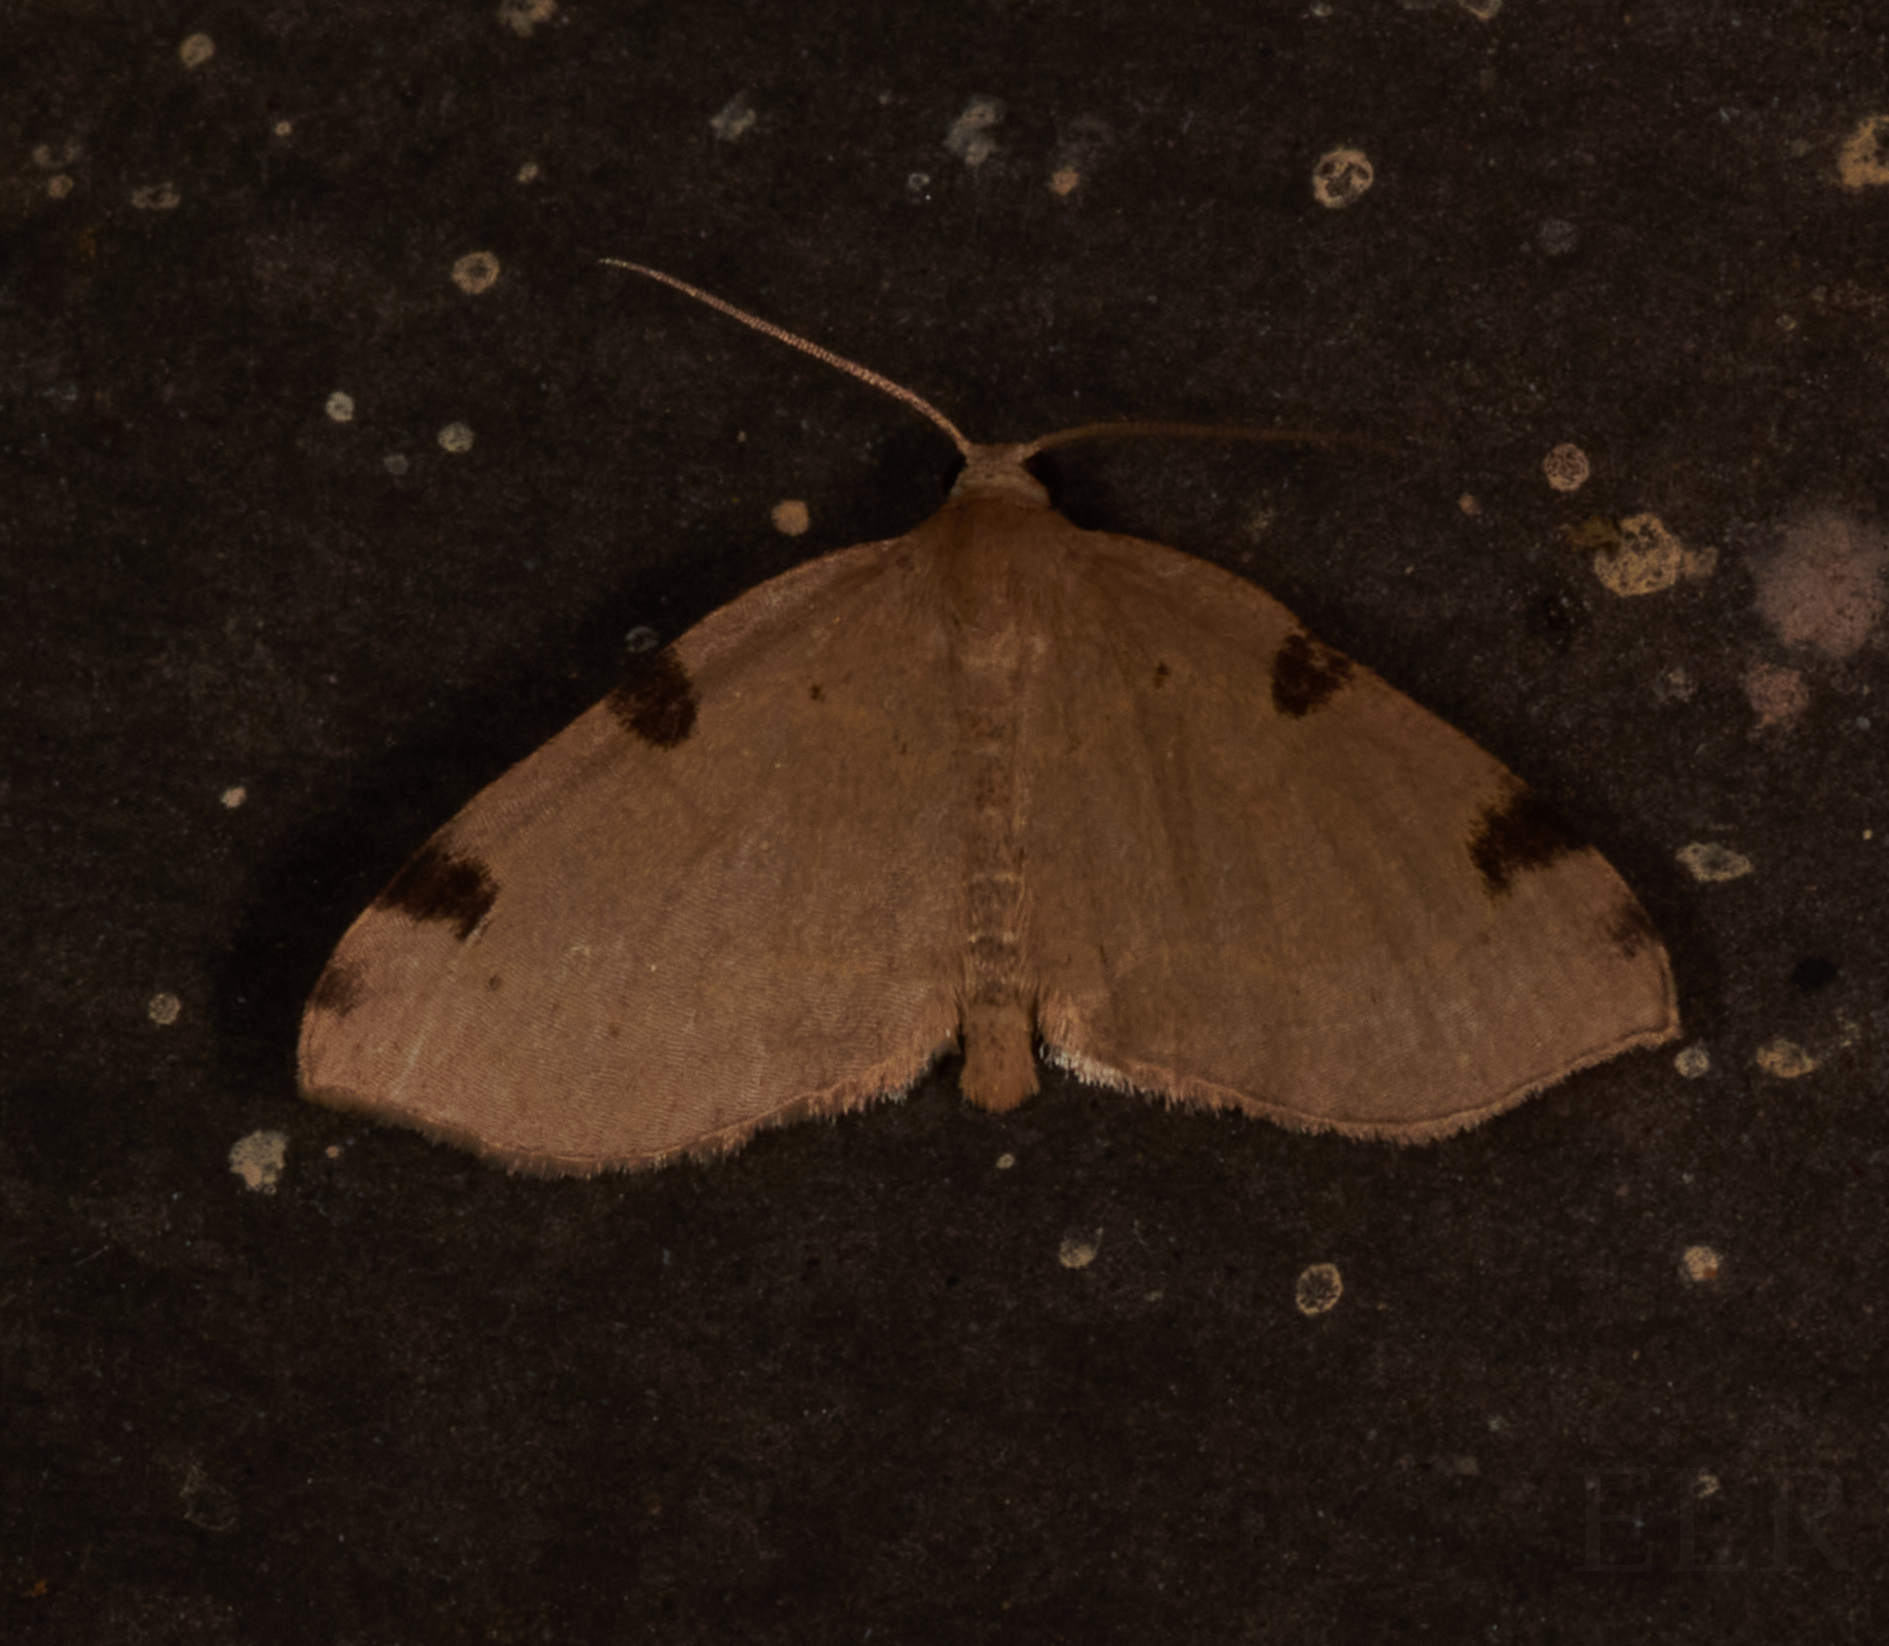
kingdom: Animalia
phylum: Arthropoda
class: Insecta
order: Lepidoptera
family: Geometridae
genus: Heterophleps
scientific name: Heterophleps triguttaria
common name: Three-spotted fillip
